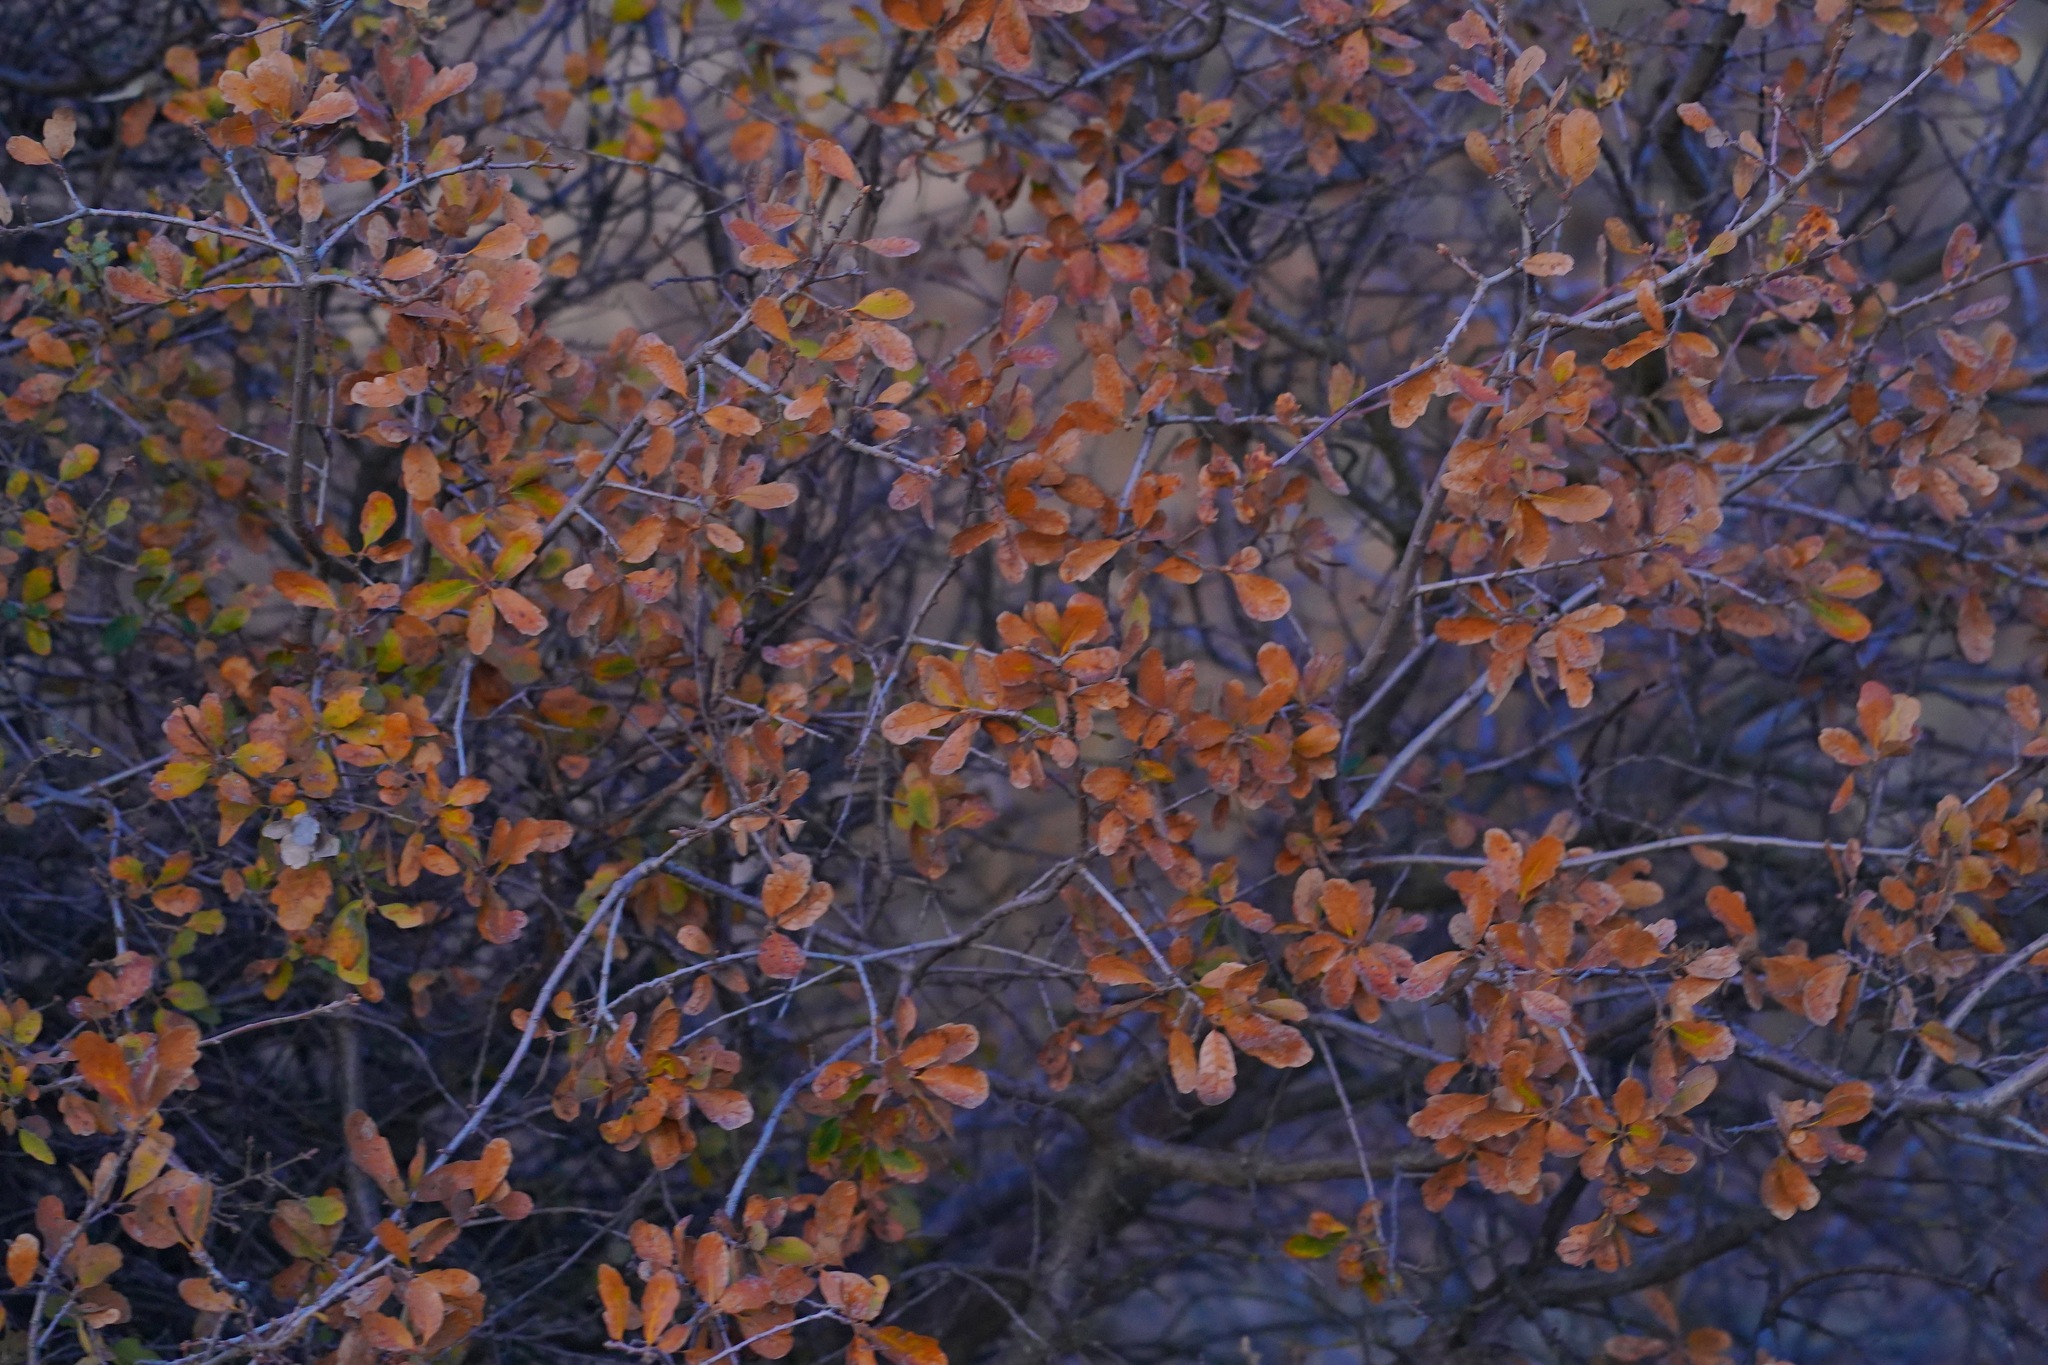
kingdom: Plantae
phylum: Tracheophyta
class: Magnoliopsida
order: Fagales
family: Fagaceae
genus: Quercus
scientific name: Quercus douglasii
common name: Blue oak
